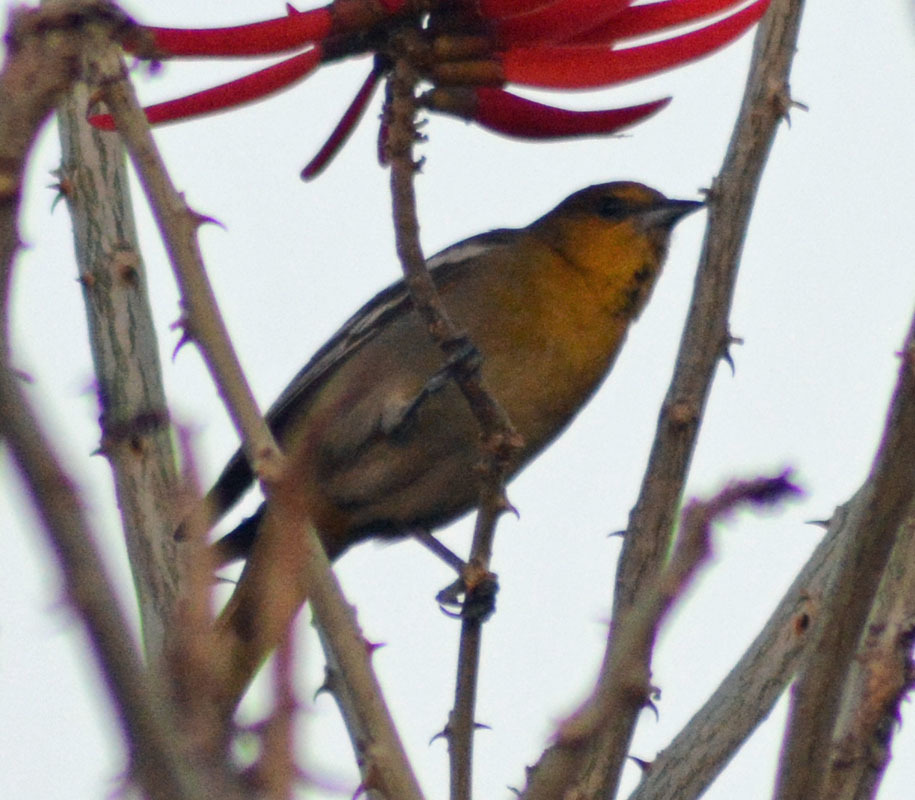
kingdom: Animalia
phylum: Chordata
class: Aves
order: Passeriformes
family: Icteridae
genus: Icterus
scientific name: Icterus abeillei
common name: Black-backed oriole
